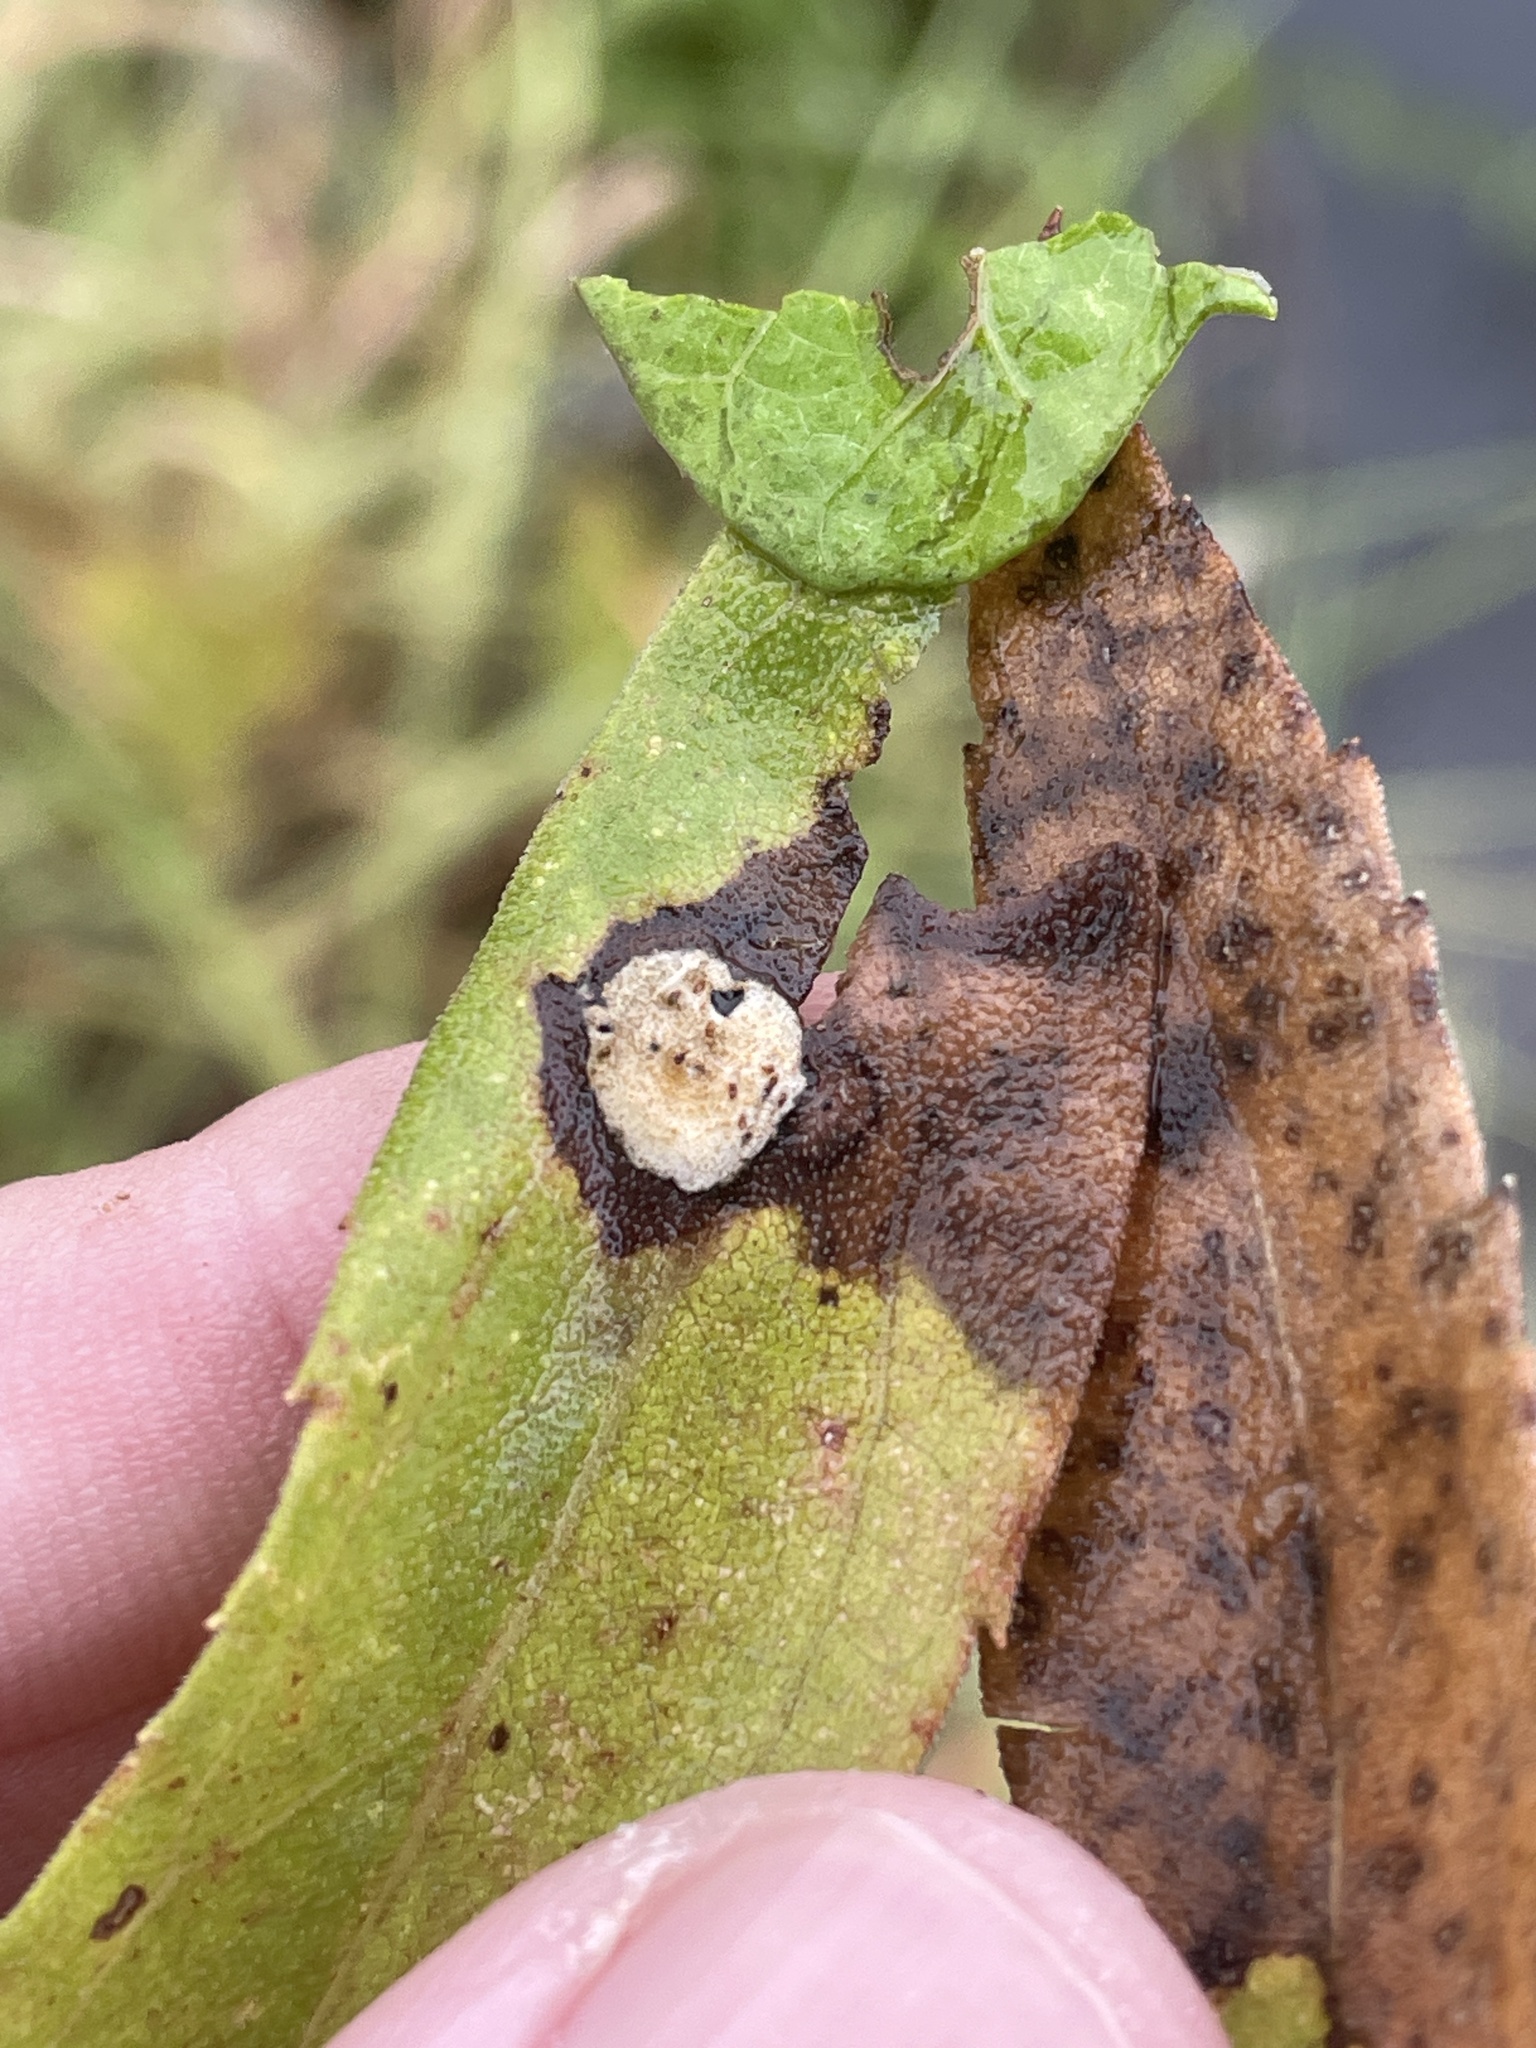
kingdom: Animalia
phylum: Arthropoda
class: Insecta
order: Diptera
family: Cecidomyiidae
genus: Asteromyia
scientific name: Asteromyia carbonifera
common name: Carbonifera goldenrod gall midge
